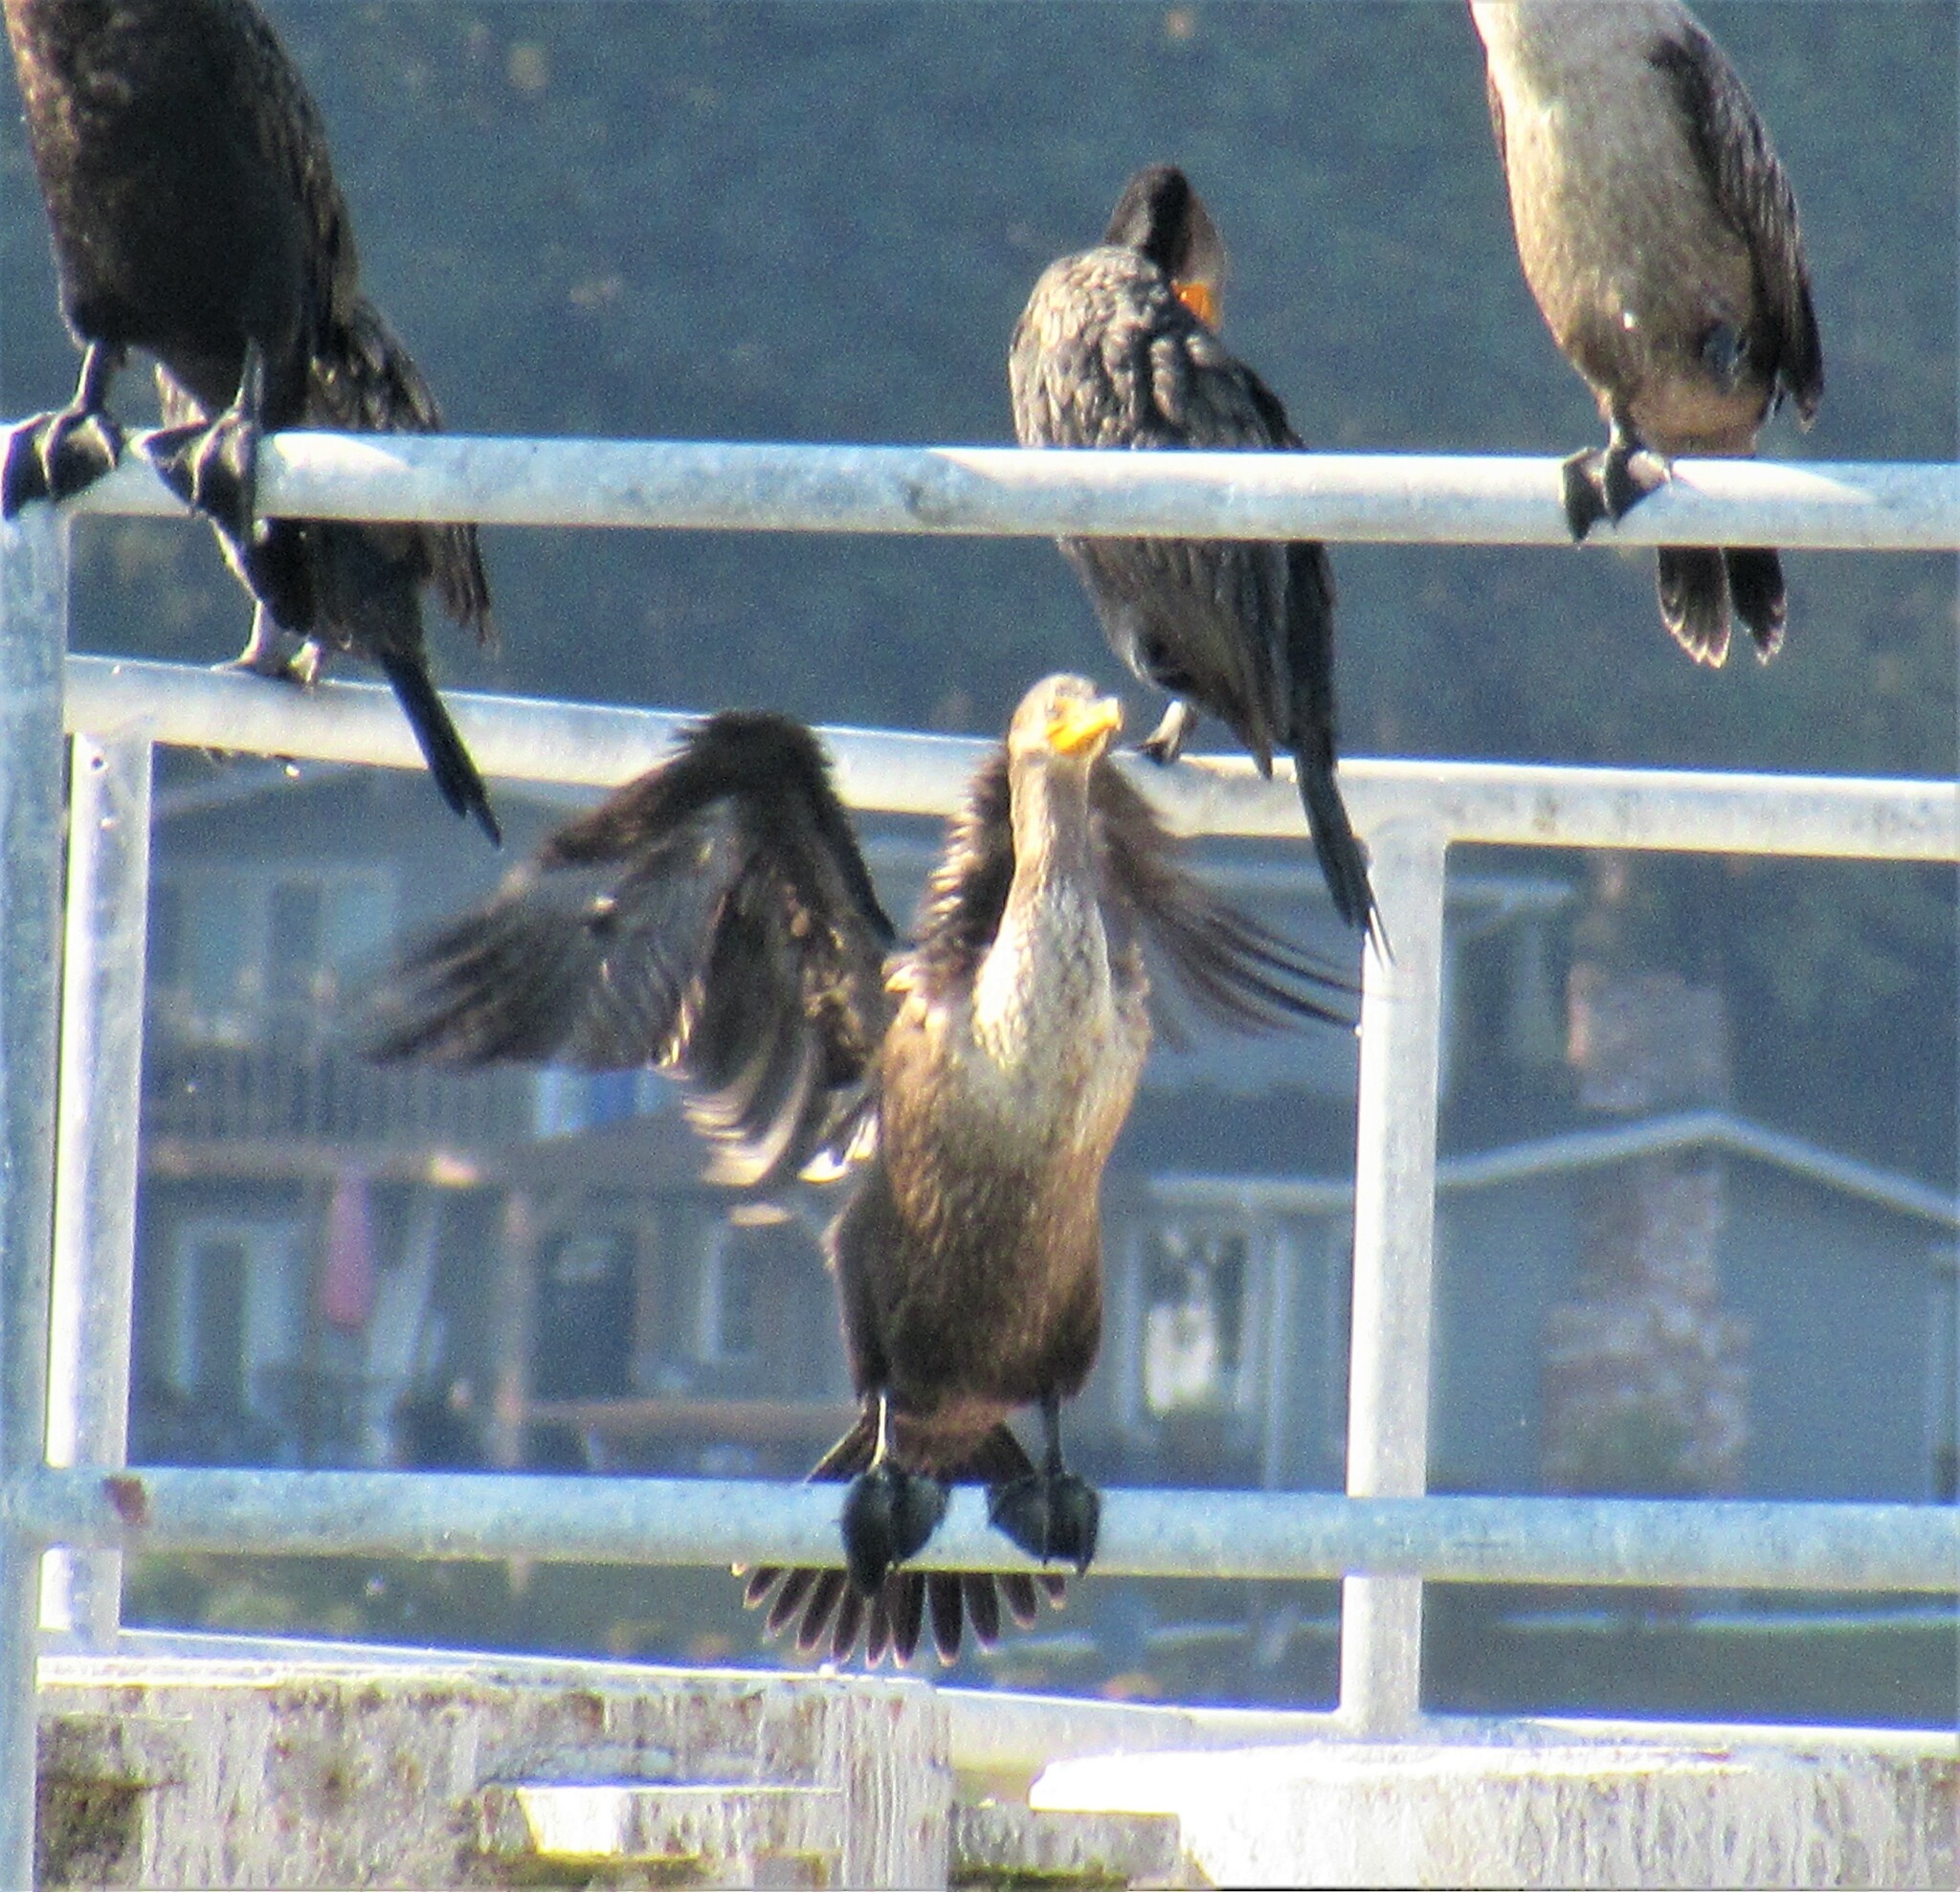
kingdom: Animalia
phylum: Chordata
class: Aves
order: Suliformes
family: Phalacrocoracidae
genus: Phalacrocorax
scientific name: Phalacrocorax auritus
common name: Double-crested cormorant
